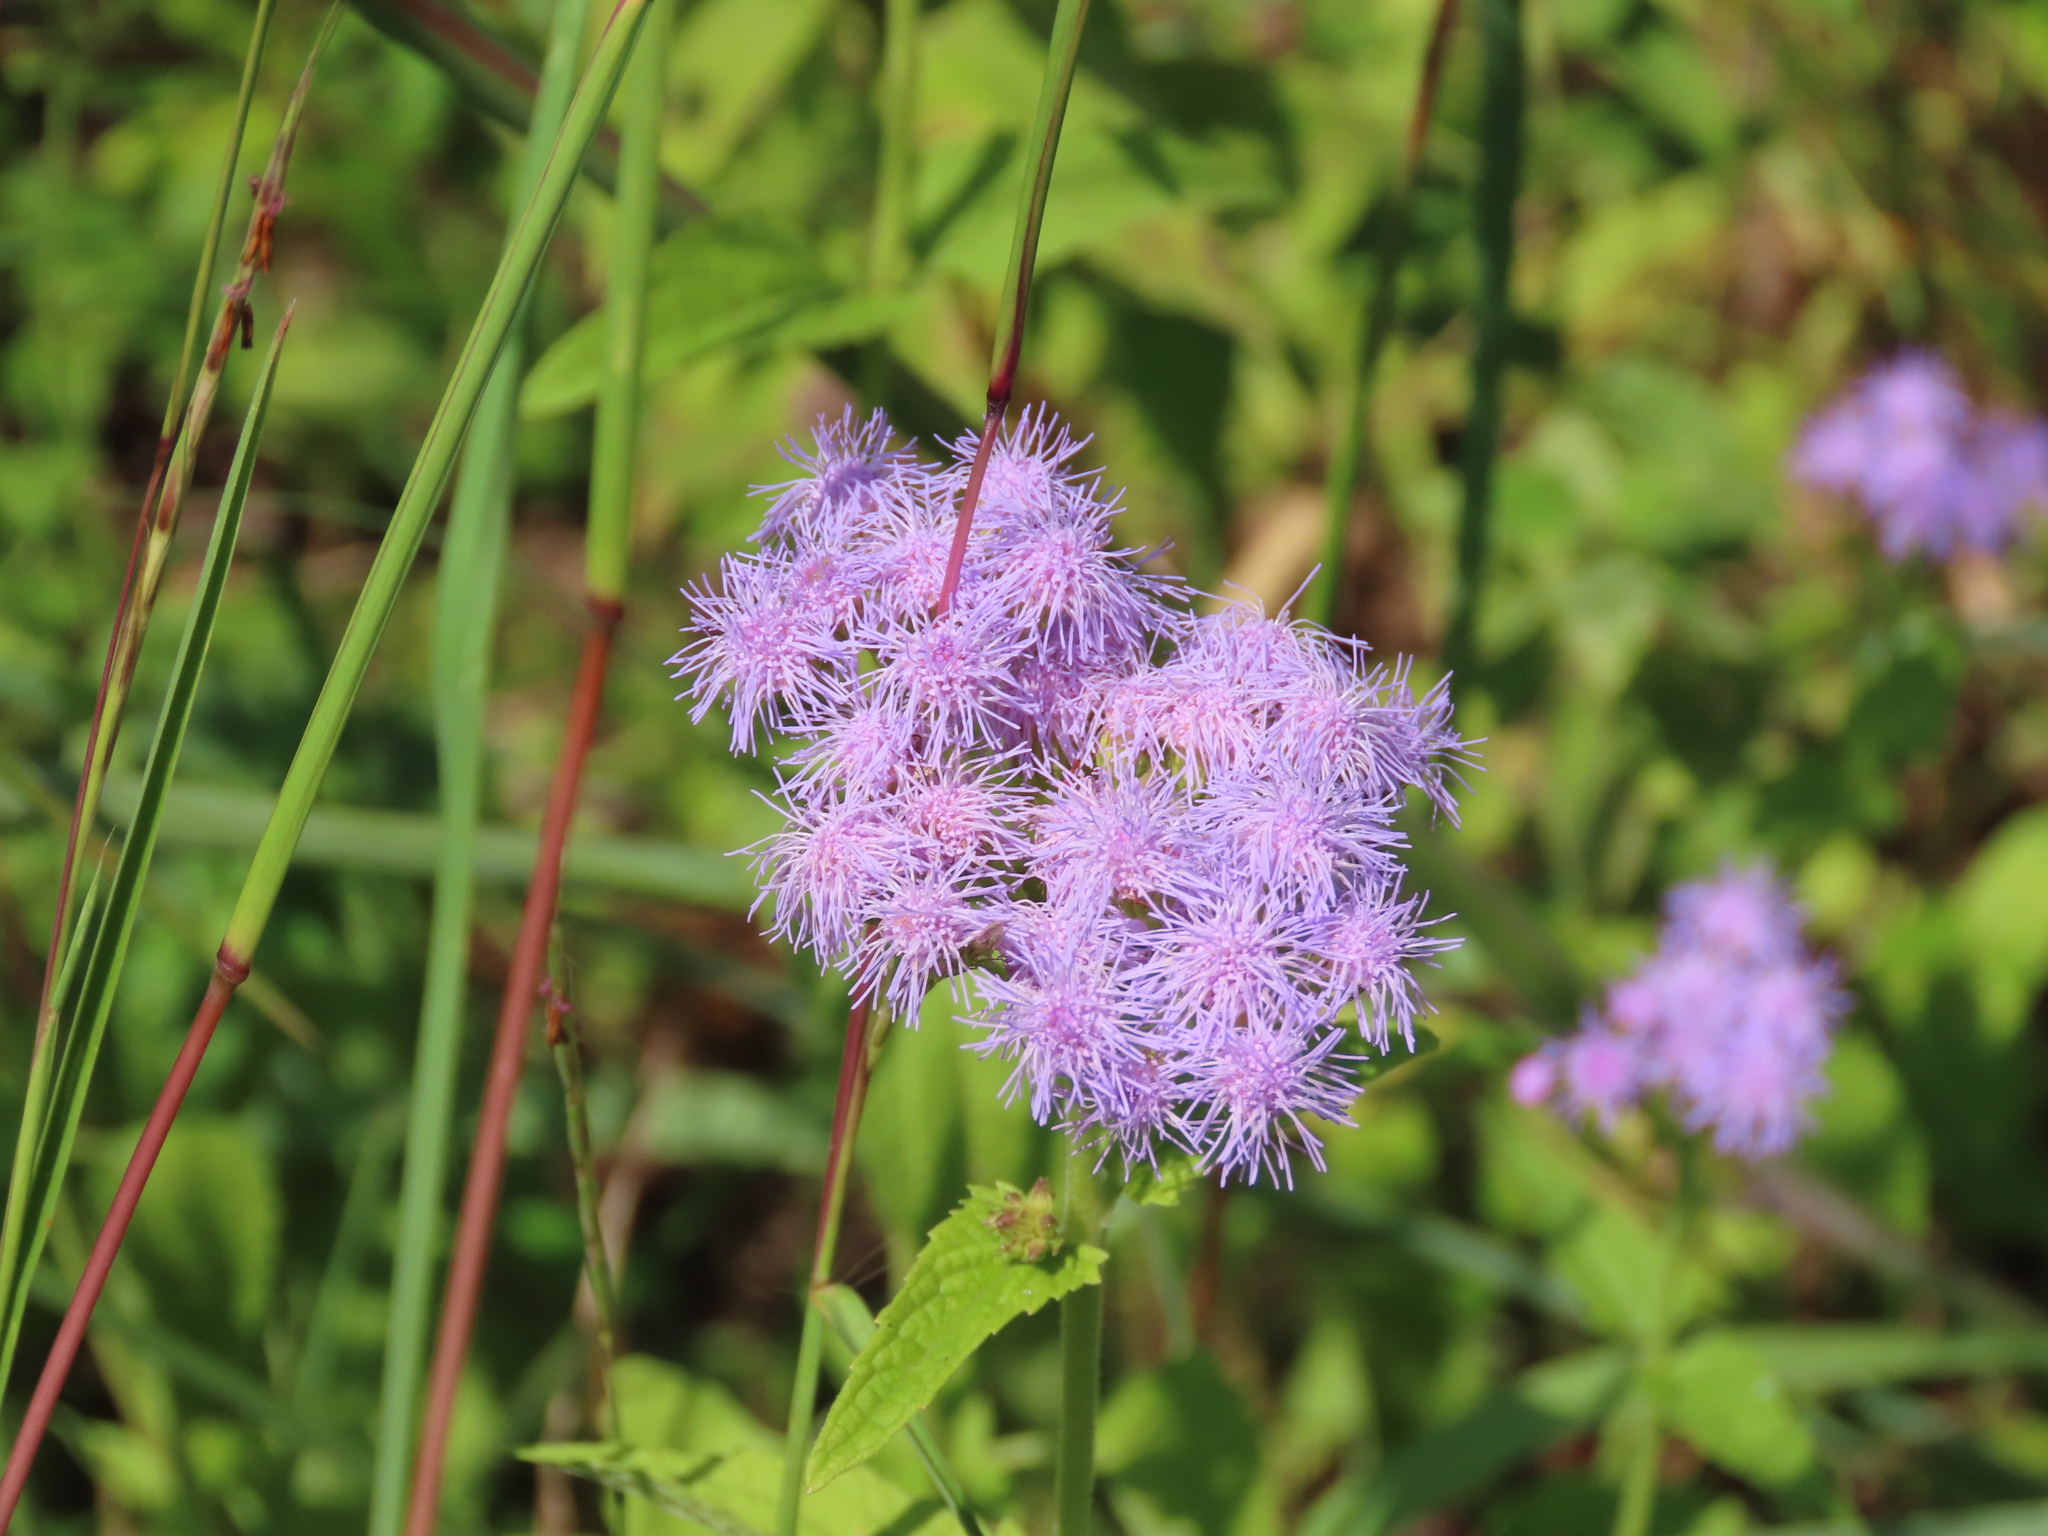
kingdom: Plantae
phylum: Tracheophyta
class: Magnoliopsida
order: Asterales
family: Asteraceae
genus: Conoclinium
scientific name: Conoclinium coelestinum
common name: Blue mistflower
